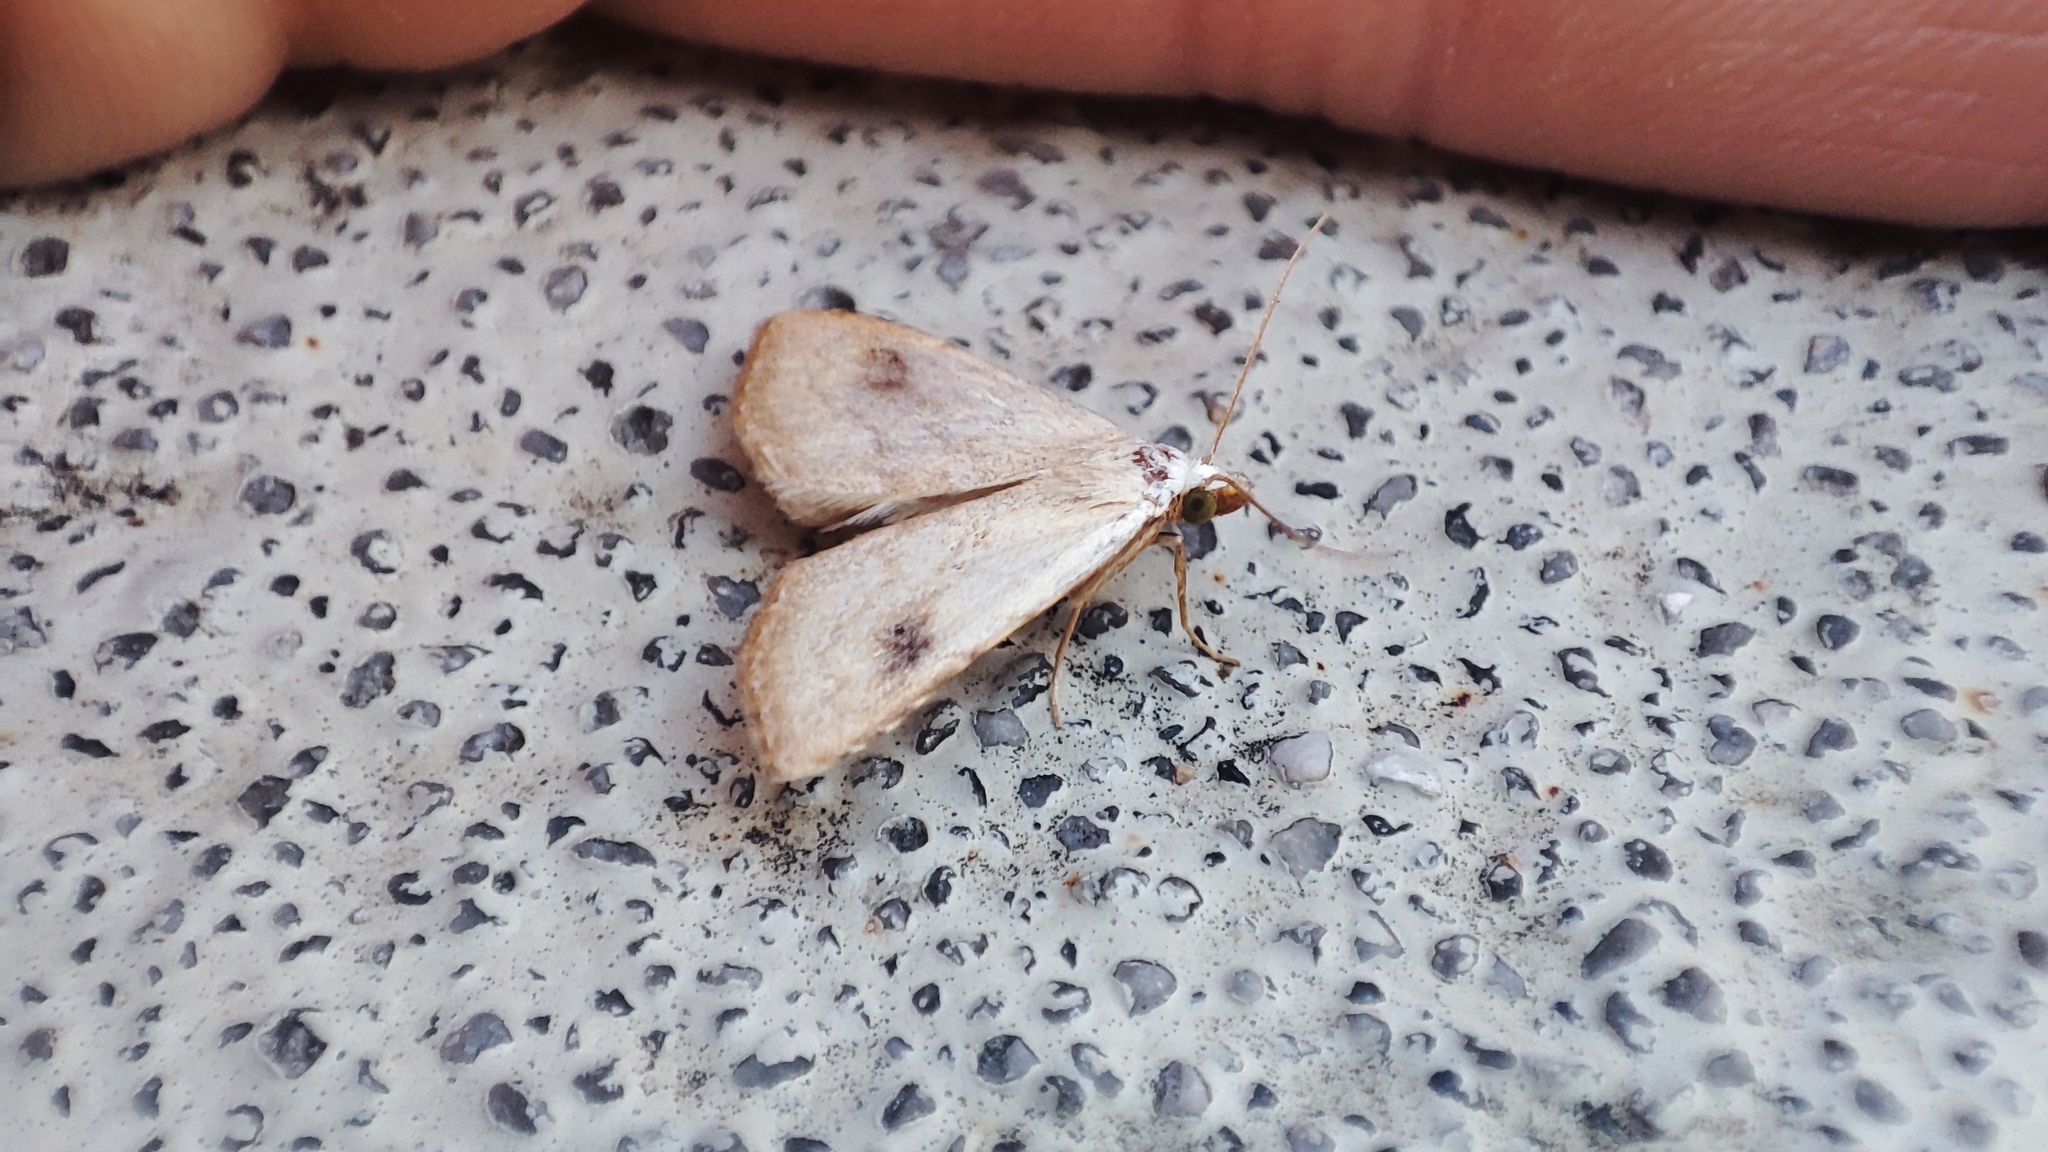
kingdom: Animalia
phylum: Arthropoda
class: Insecta
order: Lepidoptera
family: Erebidae
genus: Rivula
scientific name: Rivula sericealis
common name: Straw dot
